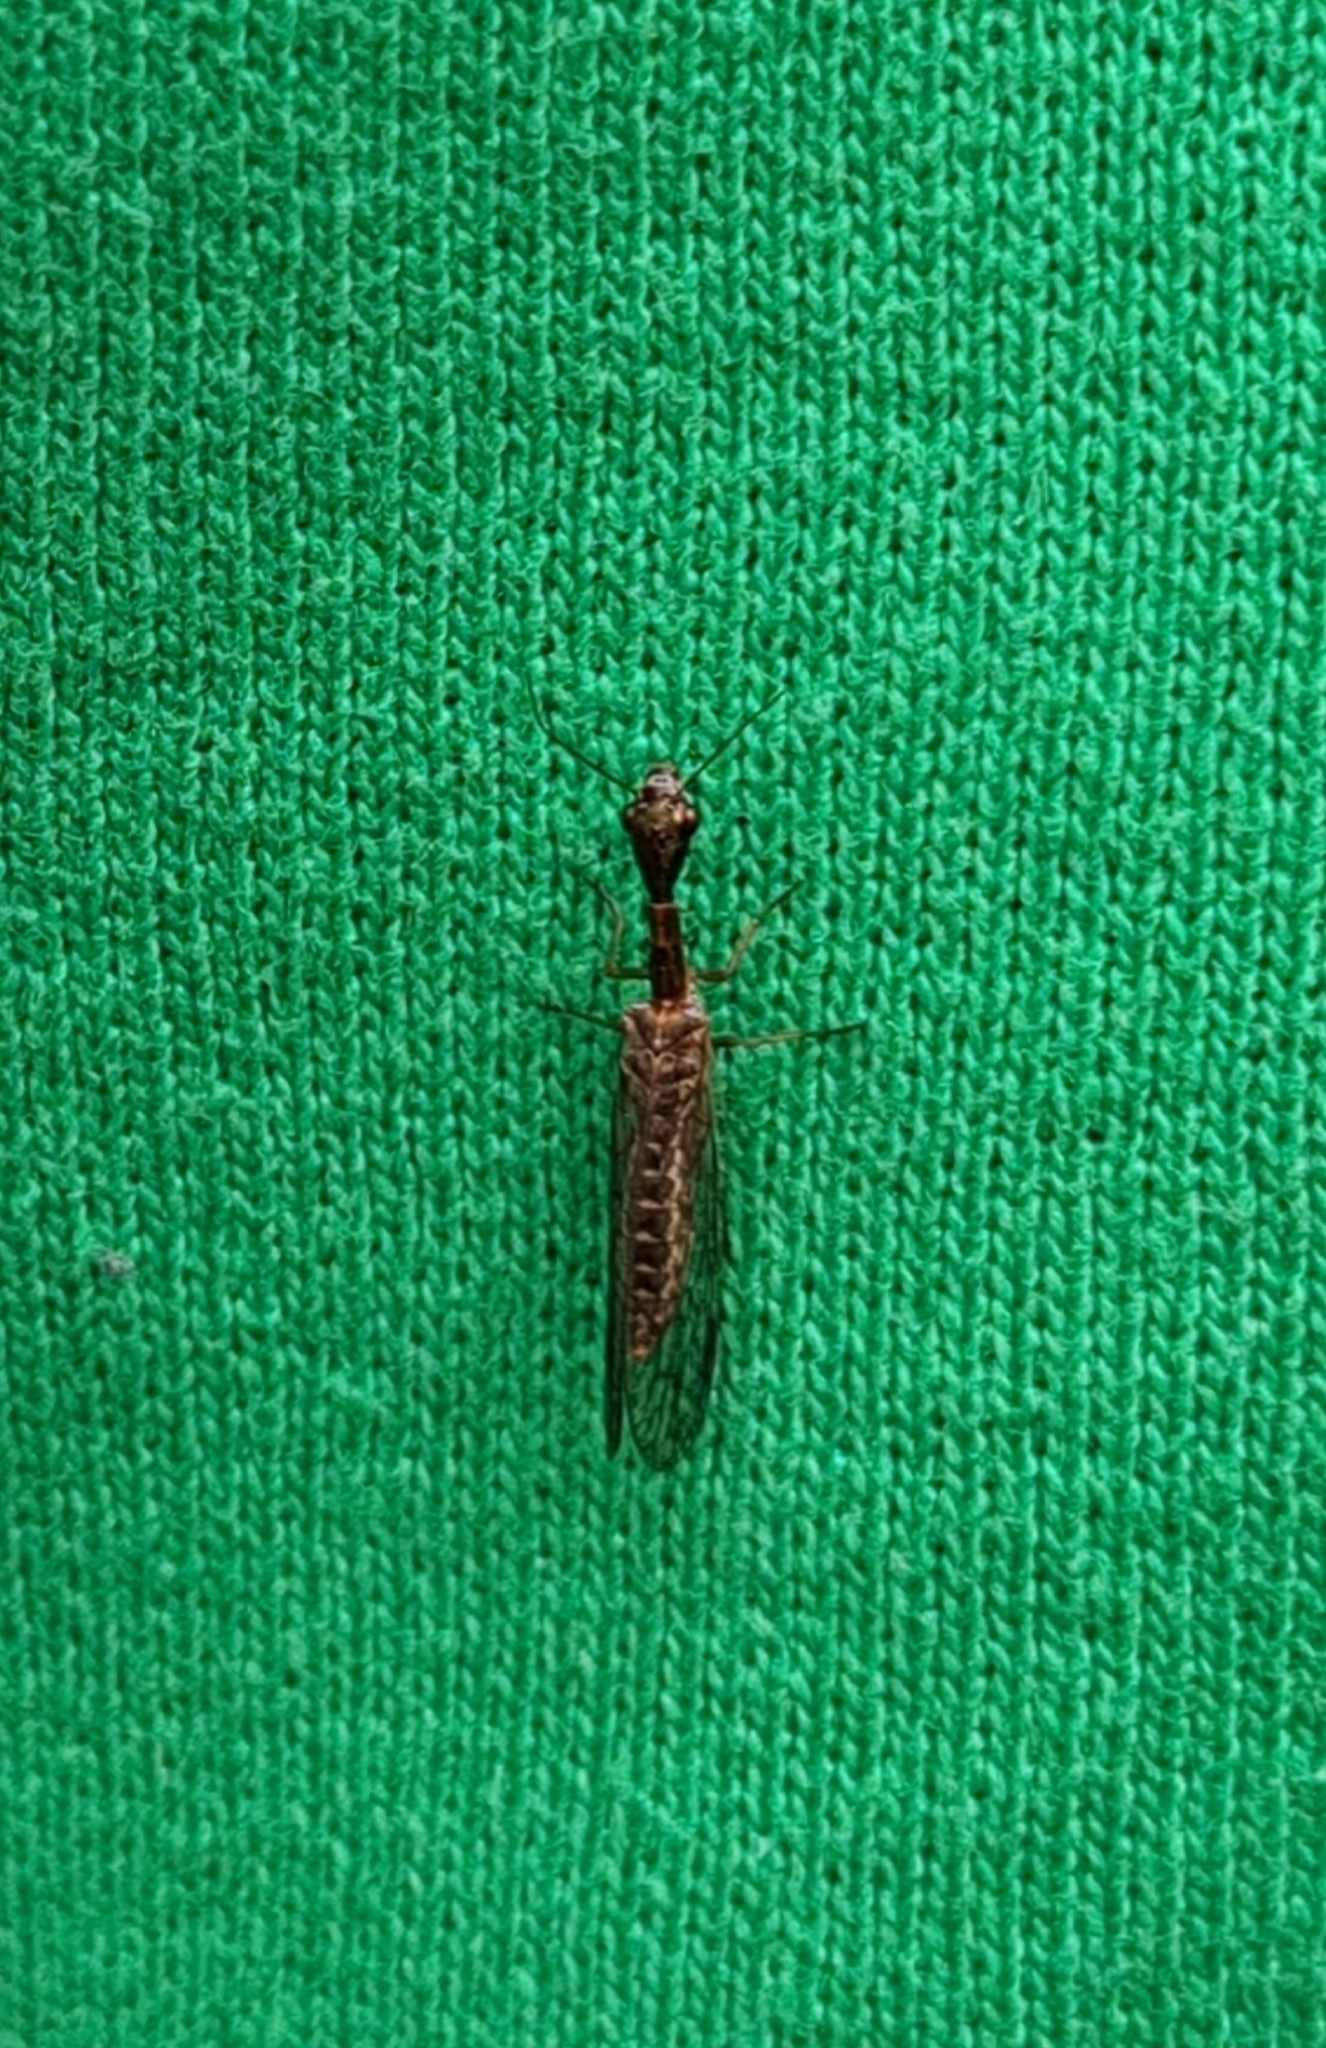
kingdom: Animalia
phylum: Arthropoda
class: Insecta
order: Raphidioptera
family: Raphidiidae
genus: Agulla
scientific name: Agulla bicolor
